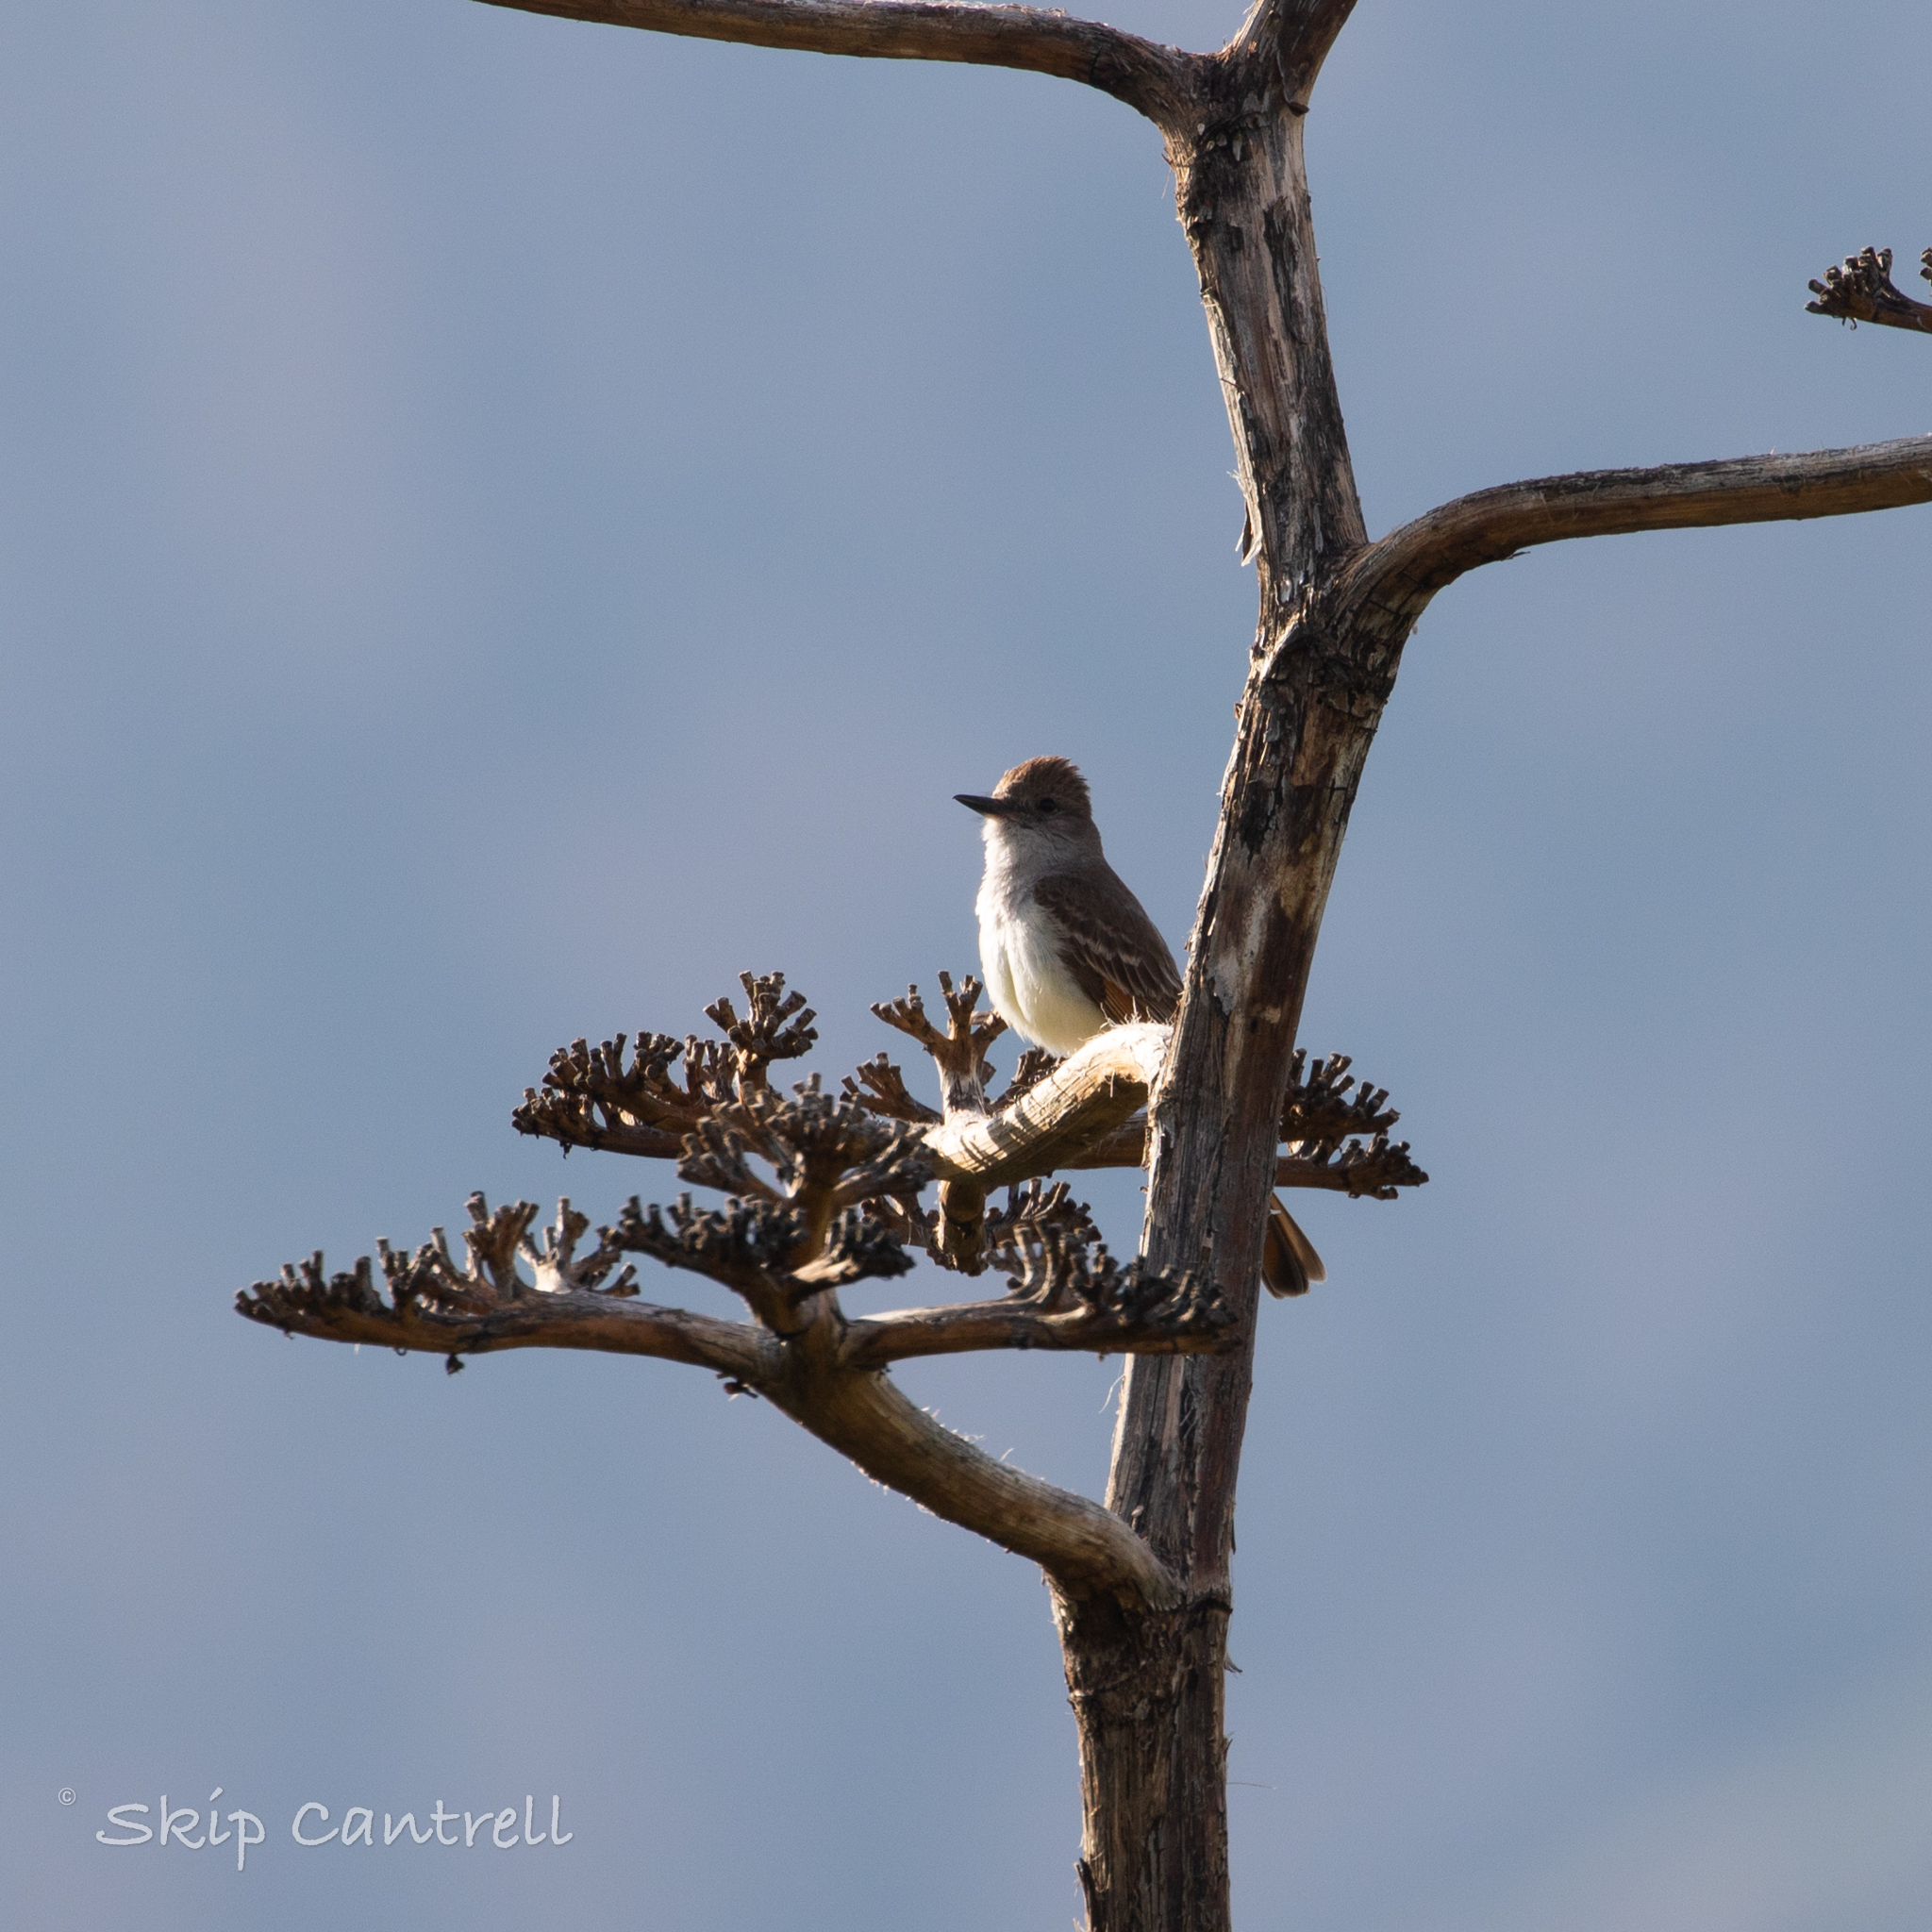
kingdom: Animalia
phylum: Chordata
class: Aves
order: Passeriformes
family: Tyrannidae
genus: Myiarchus
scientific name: Myiarchus cinerascens
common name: Ash-throated flycatcher
